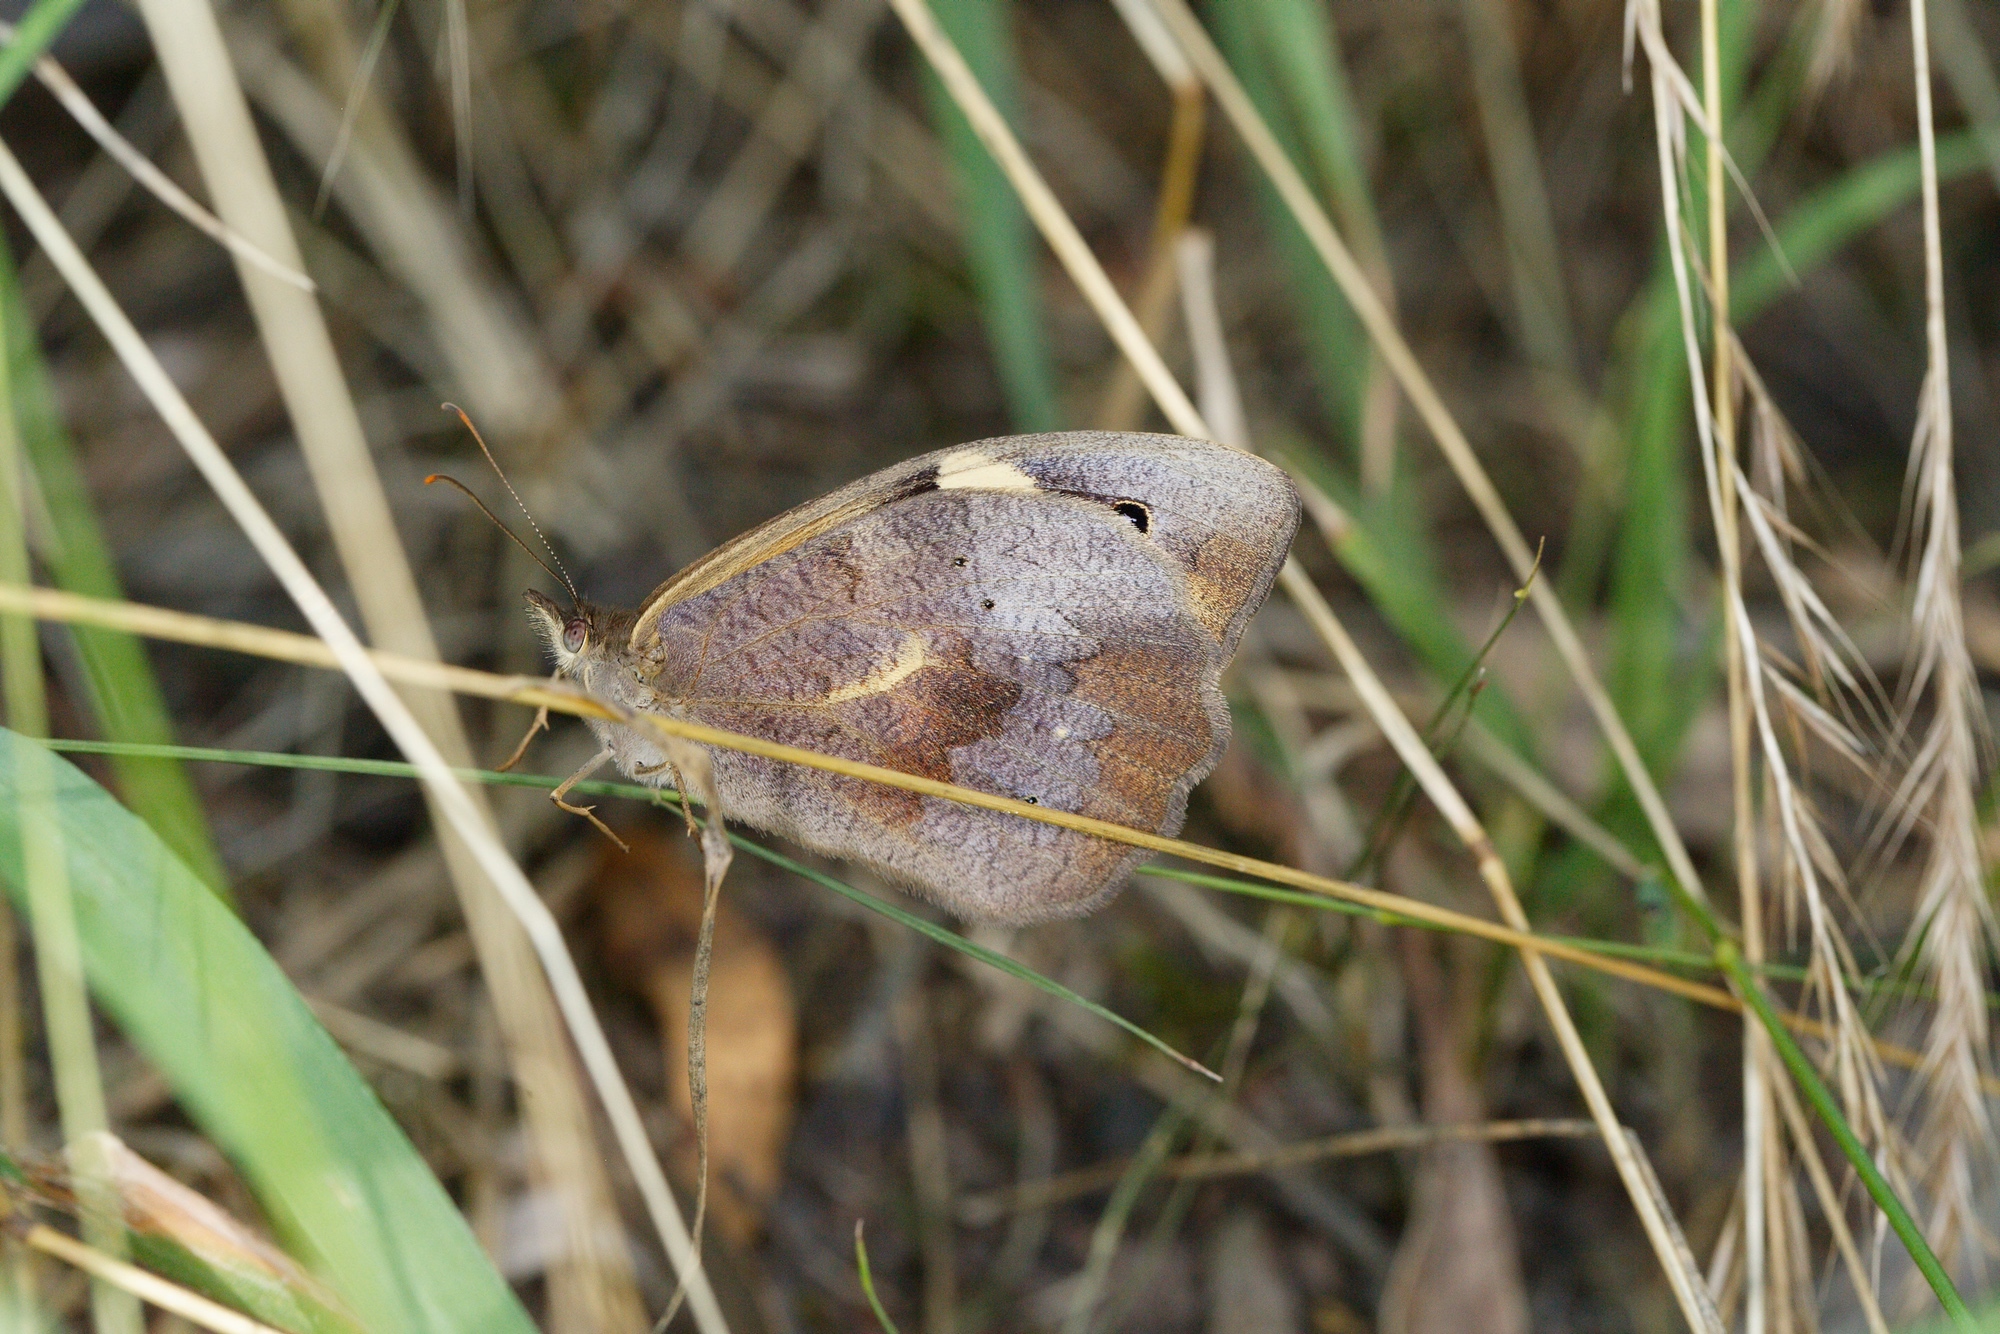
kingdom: Animalia
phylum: Arthropoda
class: Insecta
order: Lepidoptera
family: Nymphalidae
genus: Heteronympha
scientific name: Heteronympha merope
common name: Common brown
